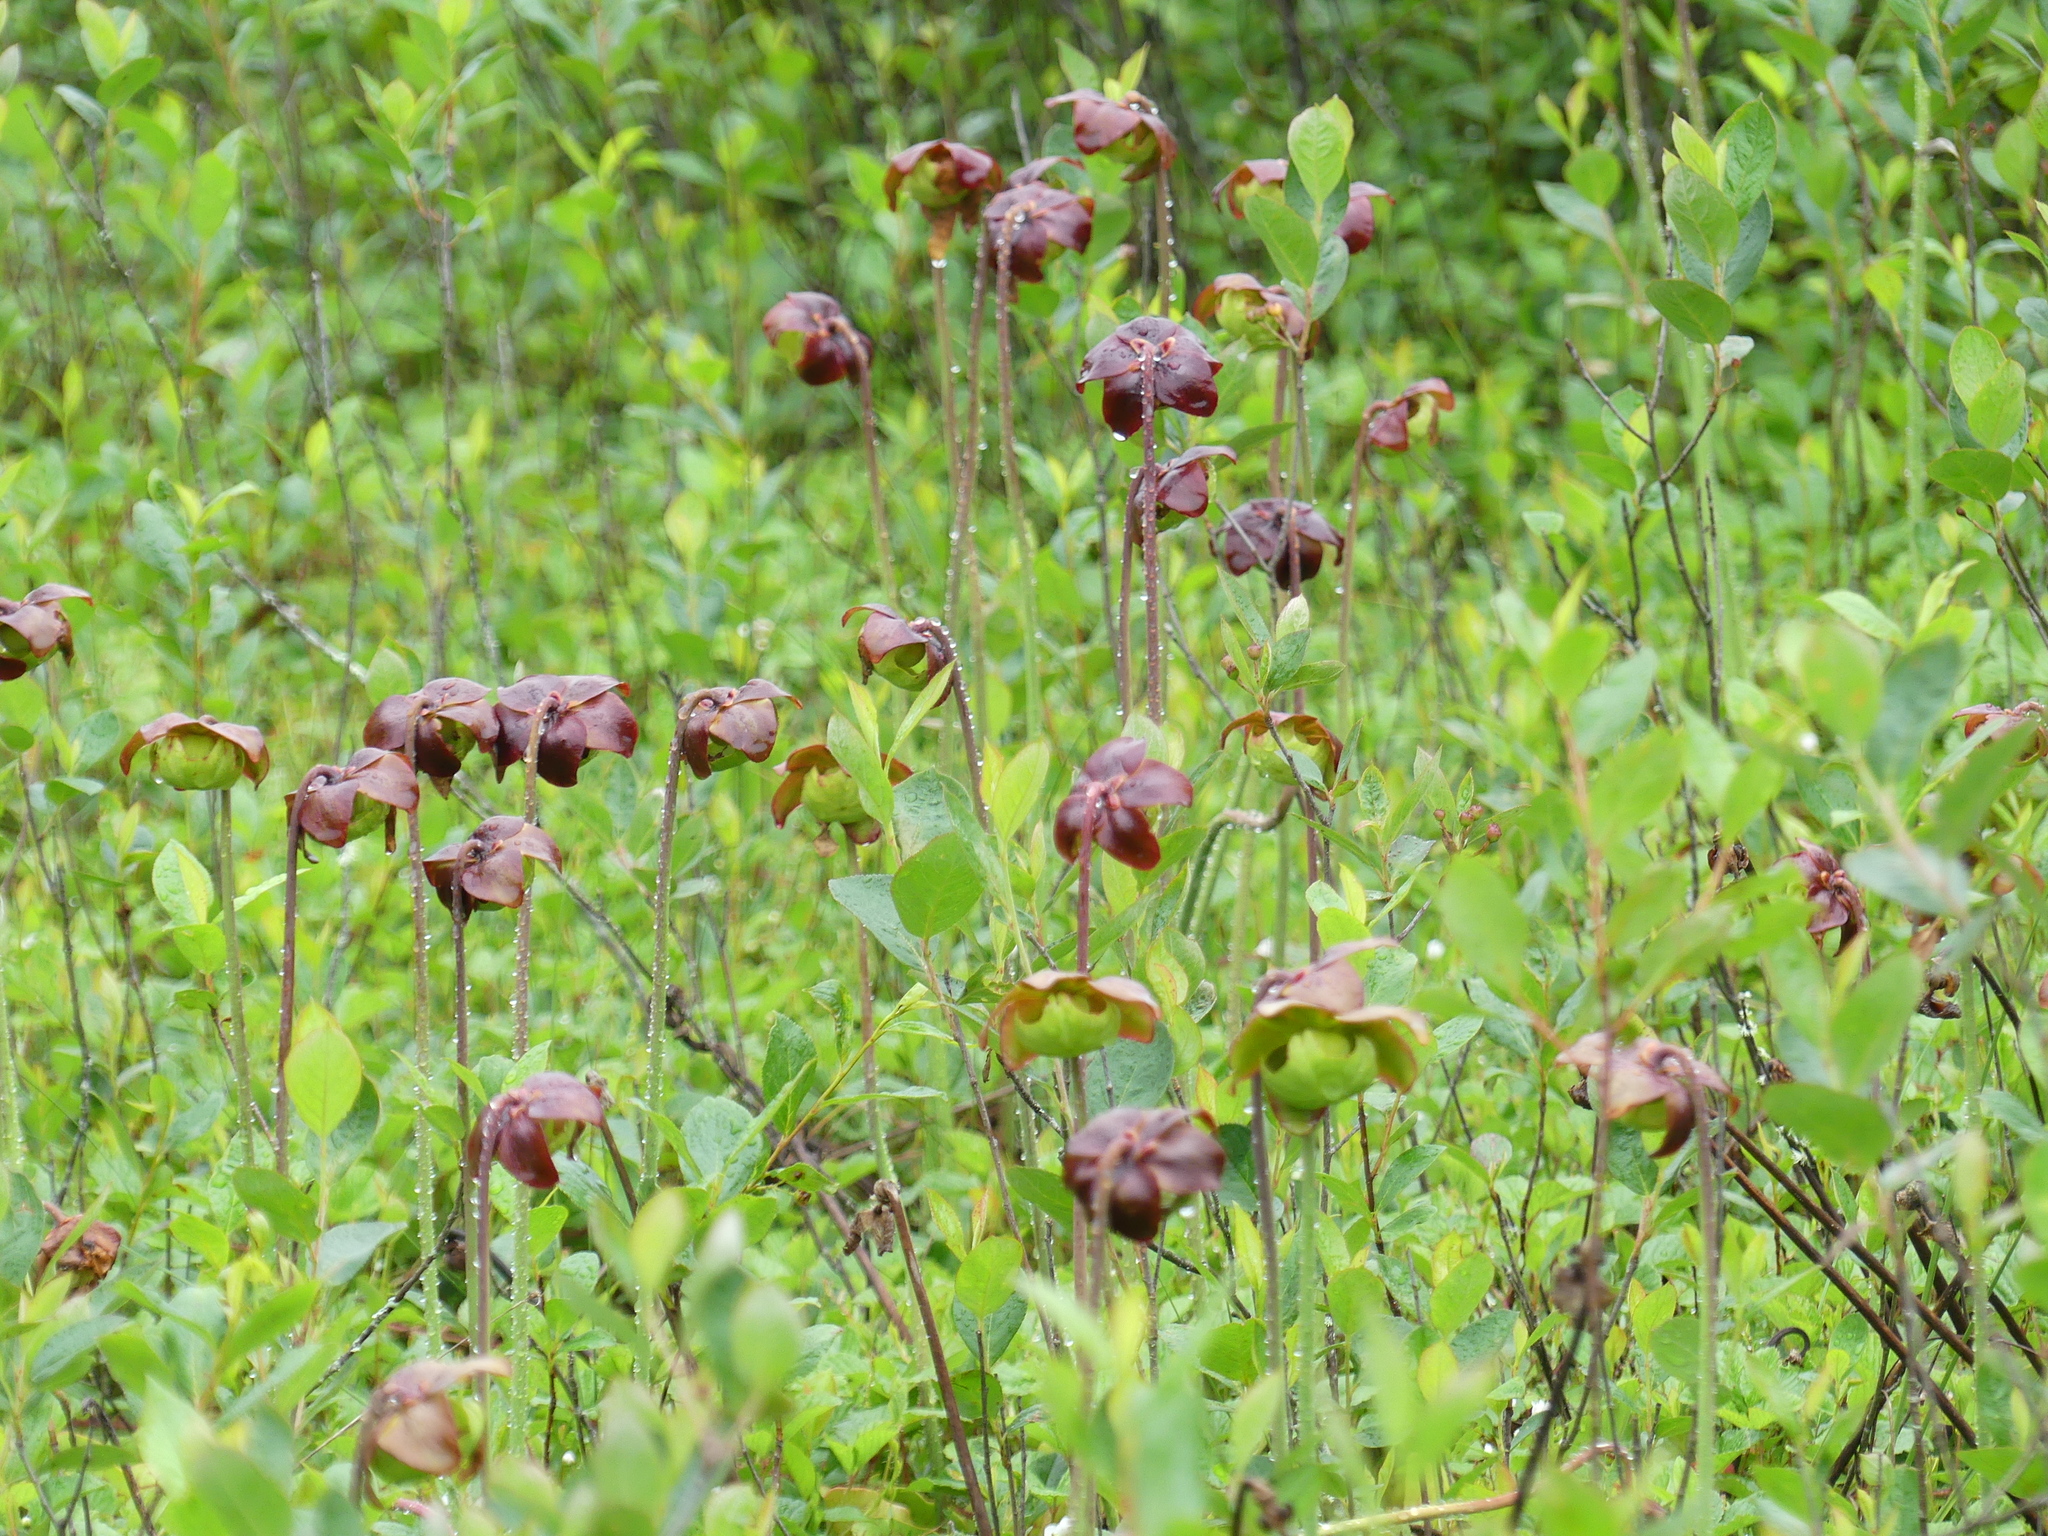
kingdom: Plantae
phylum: Tracheophyta
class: Magnoliopsida
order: Ericales
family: Sarraceniaceae
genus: Sarracenia
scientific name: Sarracenia purpurea
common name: Pitcherplant
